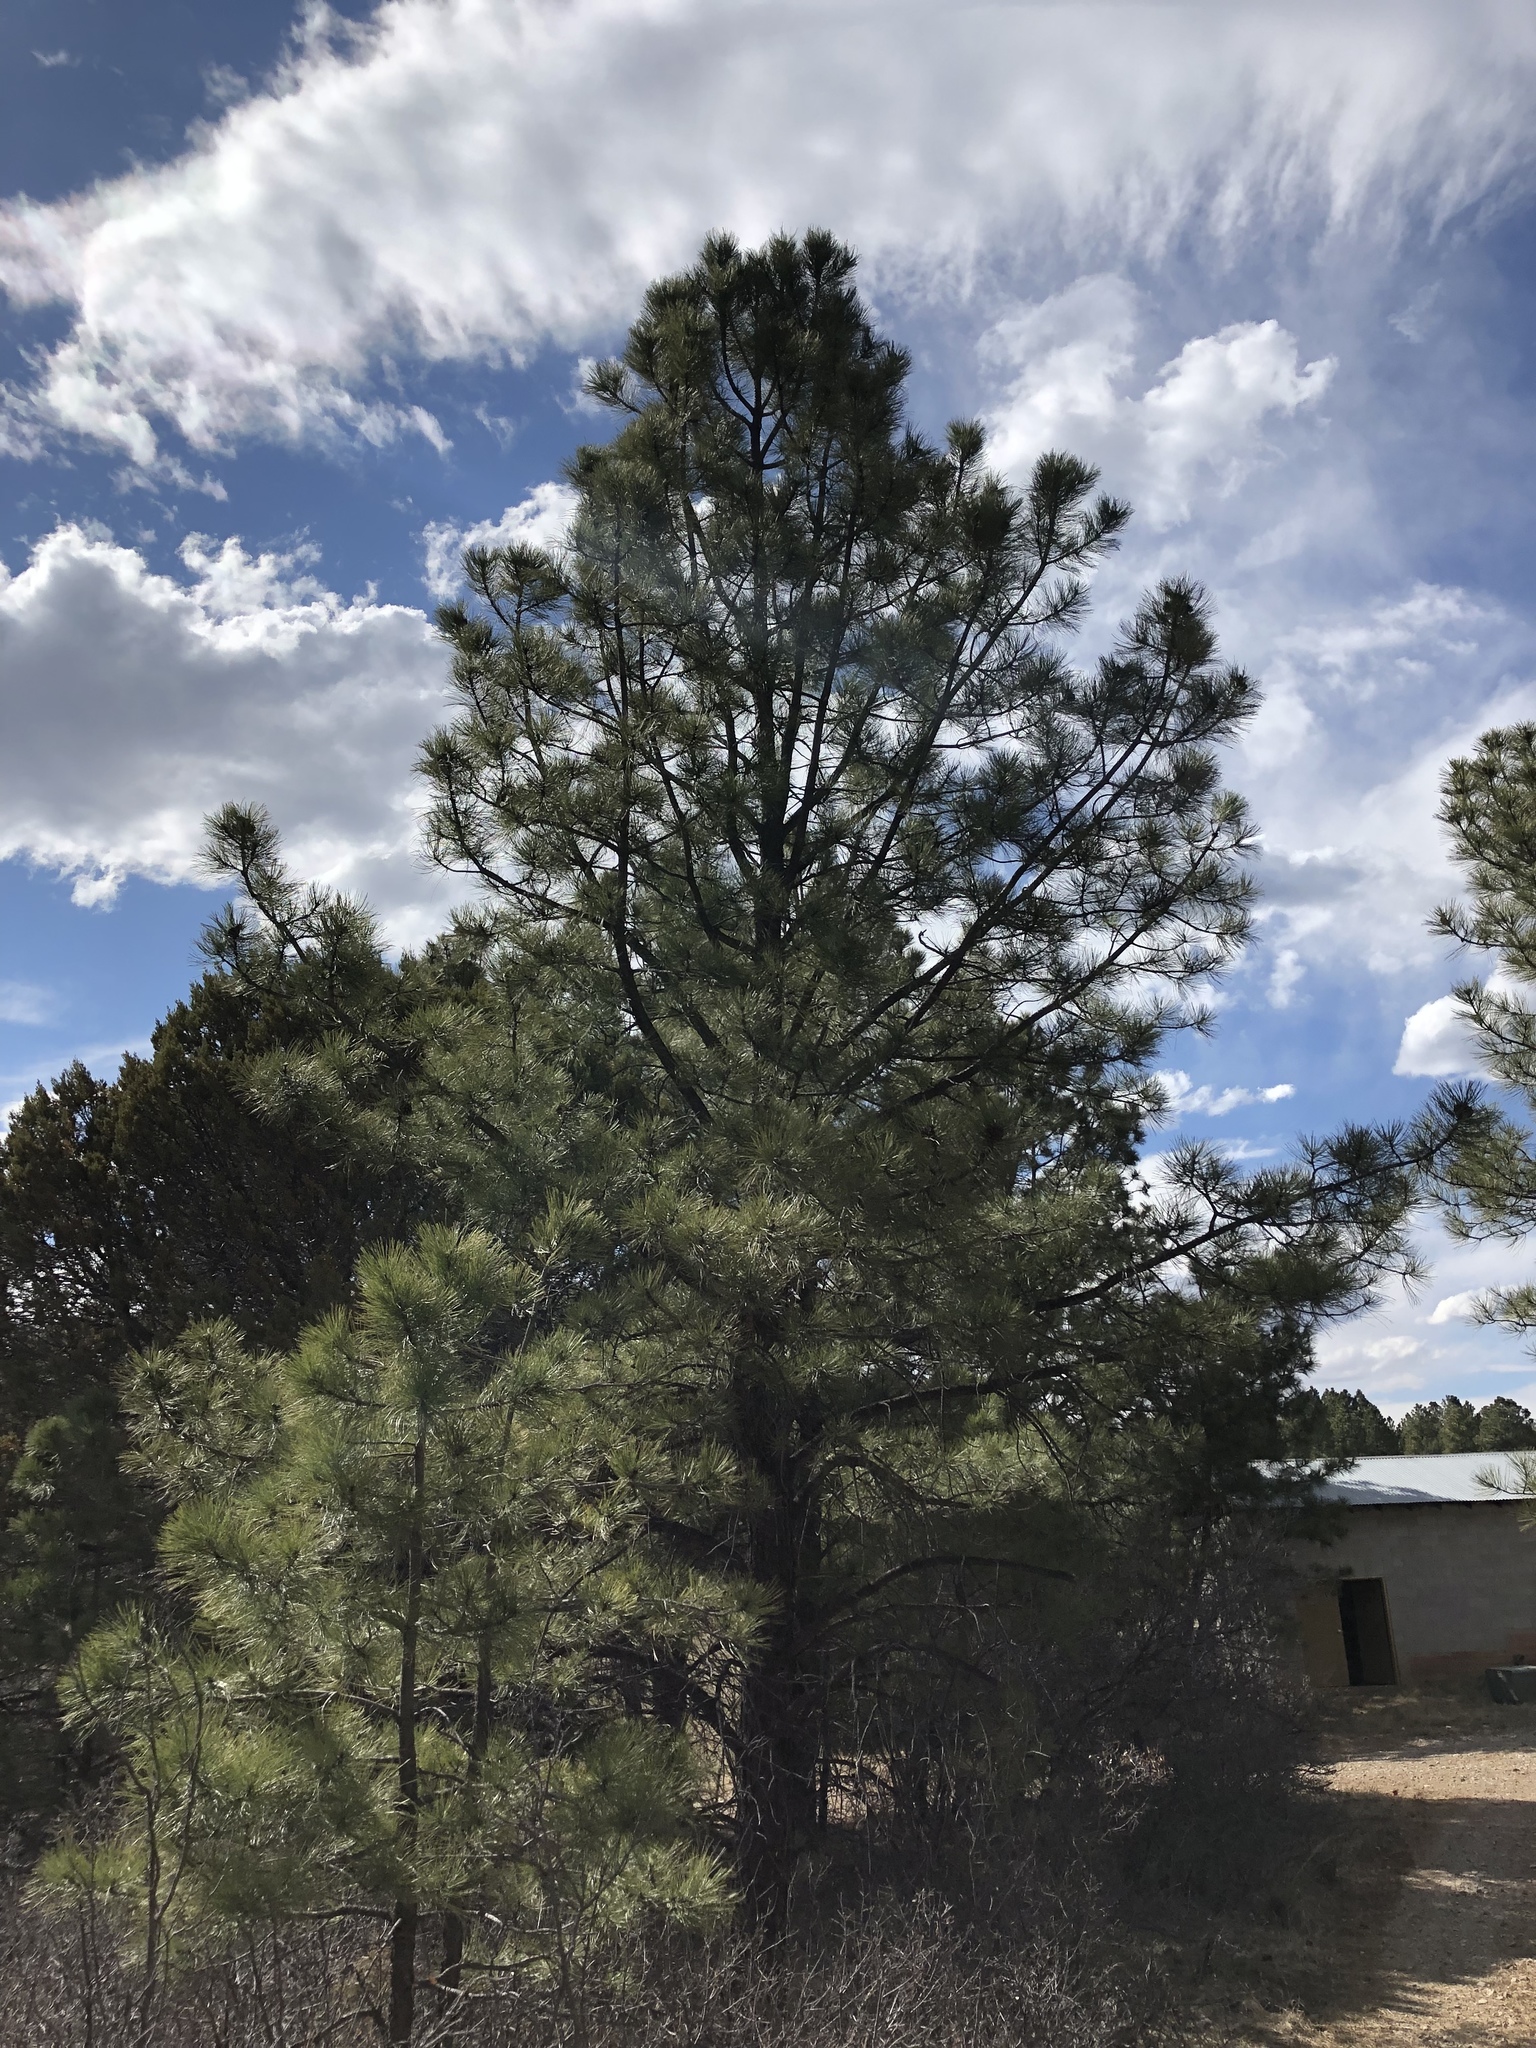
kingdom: Plantae
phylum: Tracheophyta
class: Pinopsida
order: Pinales
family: Pinaceae
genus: Pinus
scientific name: Pinus ponderosa
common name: Western yellow-pine
